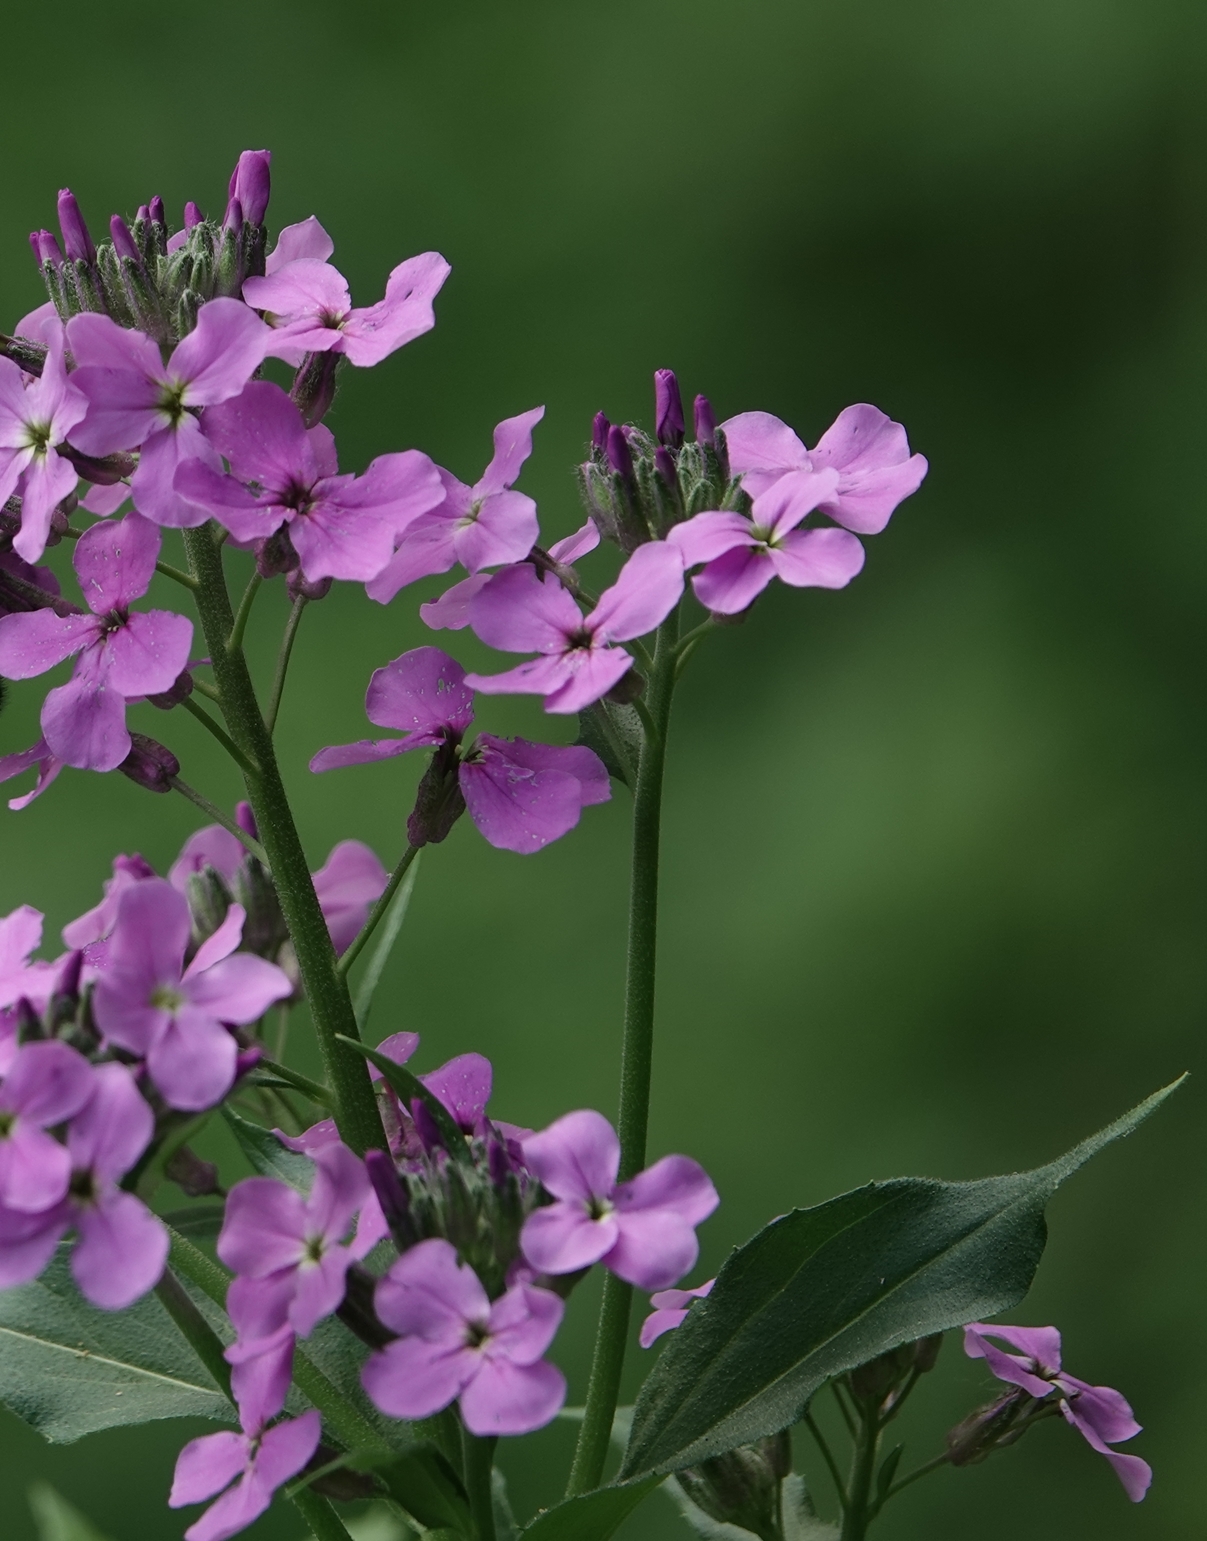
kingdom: Plantae
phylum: Tracheophyta
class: Magnoliopsida
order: Brassicales
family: Brassicaceae
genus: Hesperis
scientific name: Hesperis matronalis
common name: Dame's-violet
